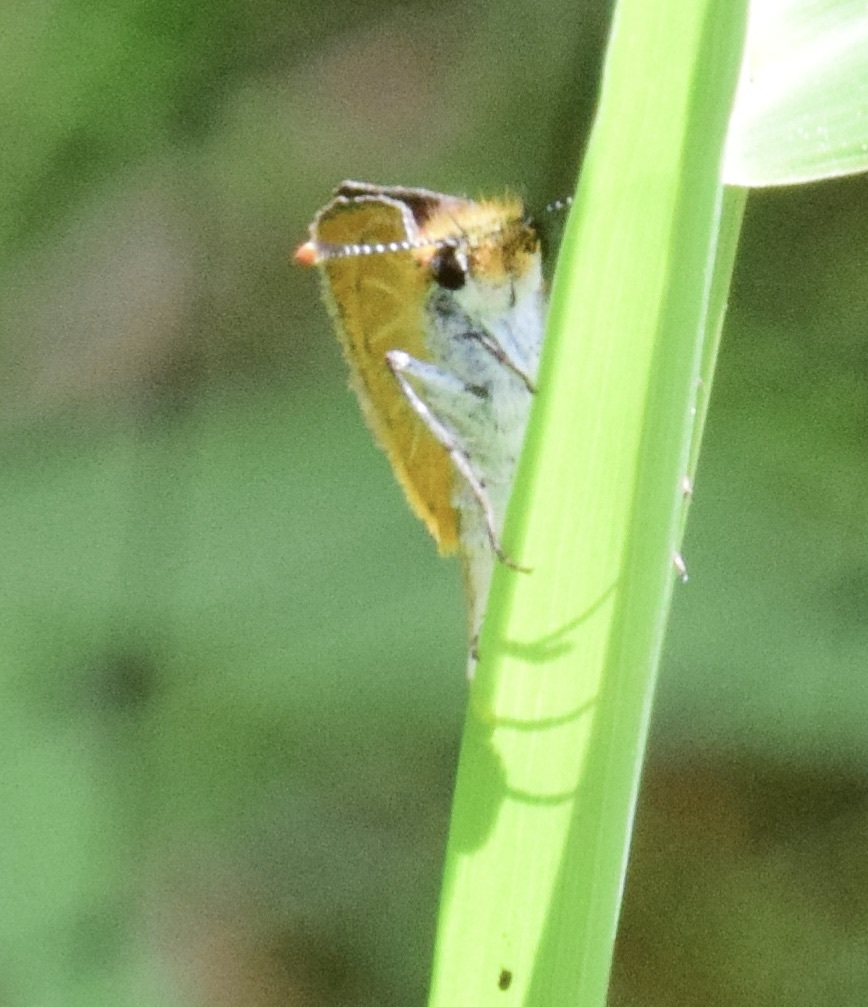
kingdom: Animalia
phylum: Arthropoda
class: Insecta
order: Lepidoptera
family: Hesperiidae
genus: Ancyloxypha
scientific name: Ancyloxypha numitor
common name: Least skipper
